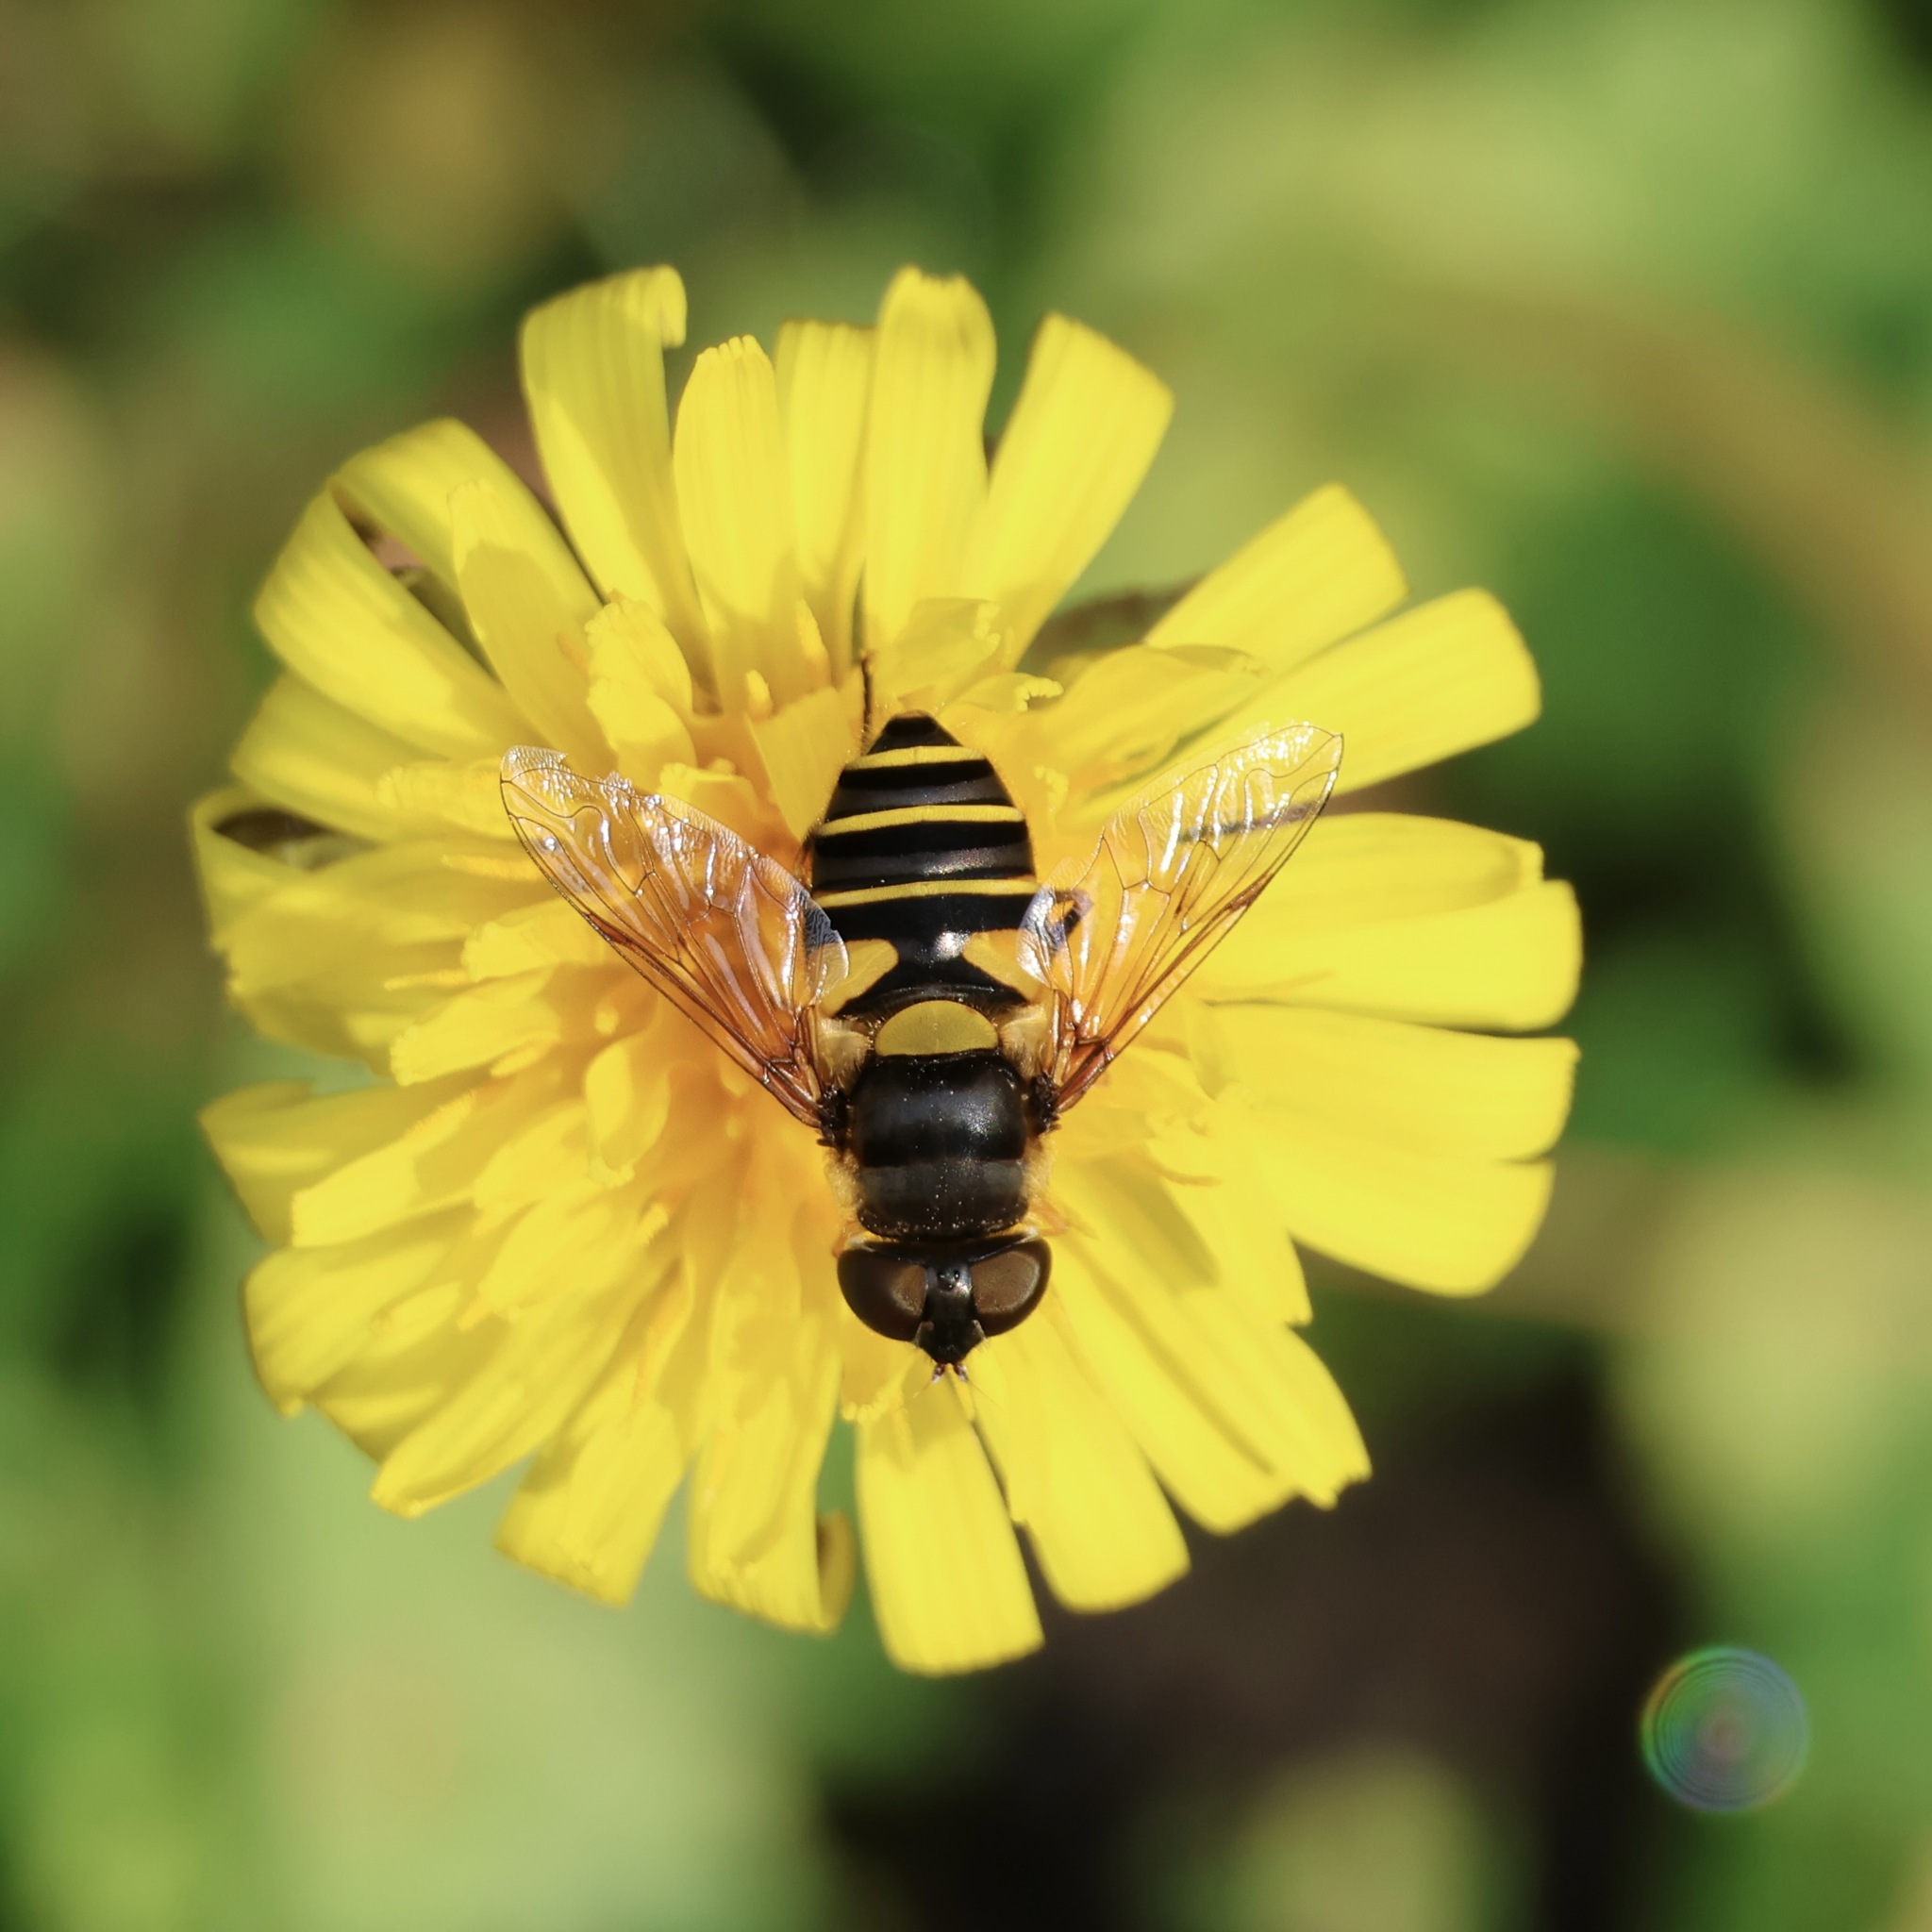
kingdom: Animalia
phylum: Arthropoda
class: Insecta
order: Diptera
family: Syrphidae
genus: Eristalis
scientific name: Eristalis transversa
